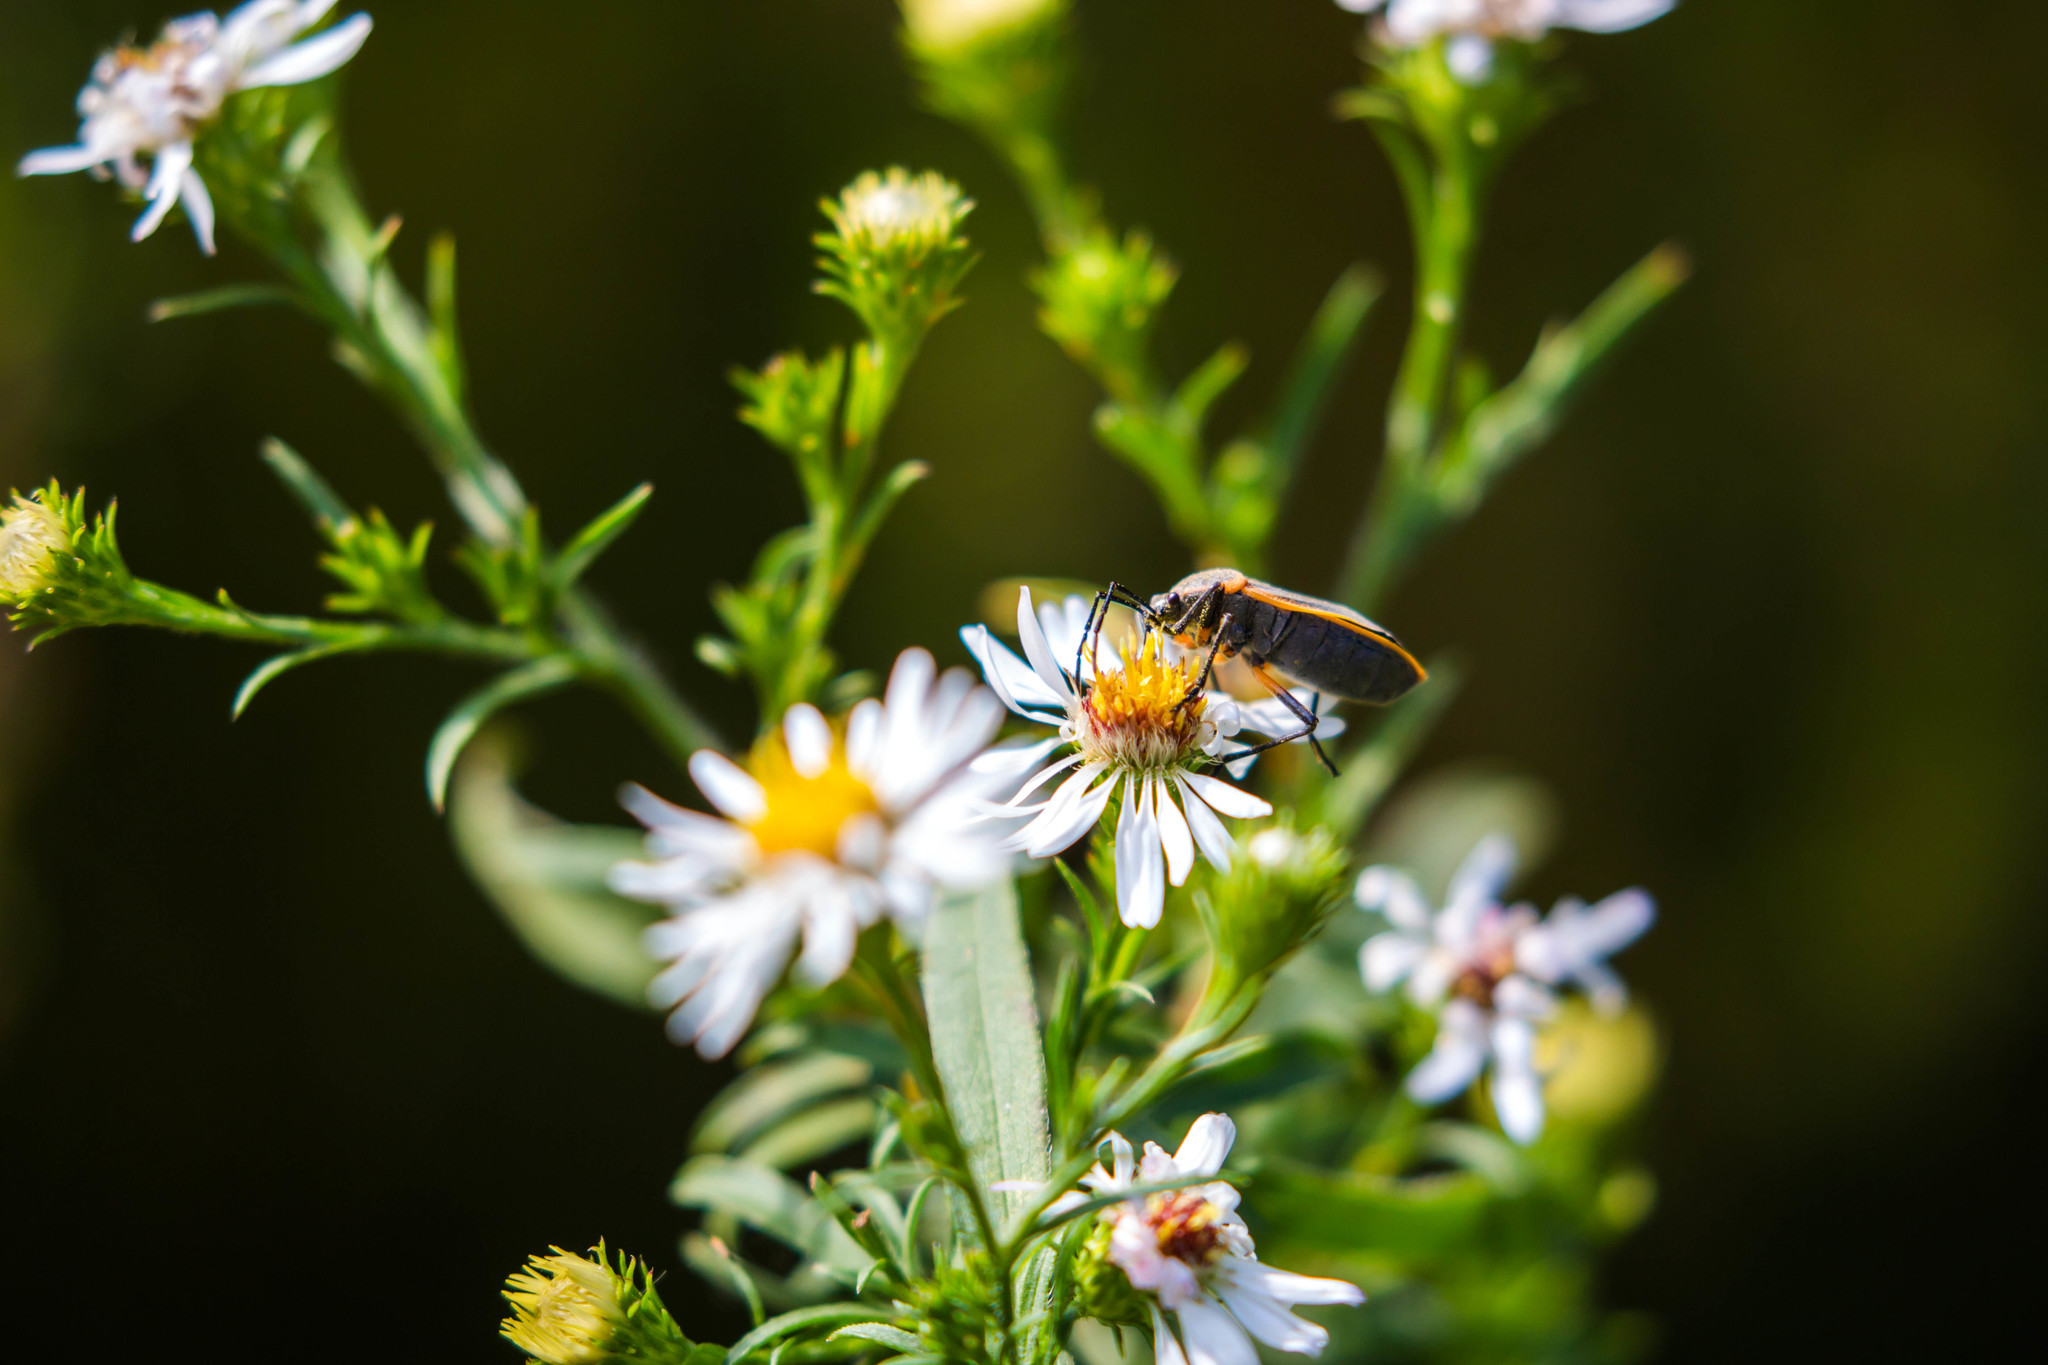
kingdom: Animalia
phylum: Arthropoda
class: Insecta
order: Hemiptera
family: Largidae
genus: Largus
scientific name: Largus succinctus
